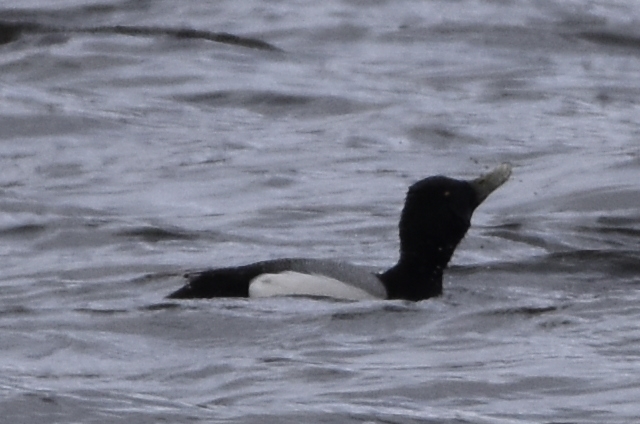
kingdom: Animalia
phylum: Chordata
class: Aves
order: Anseriformes
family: Anatidae
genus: Aythya
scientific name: Aythya marila
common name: Greater scaup
